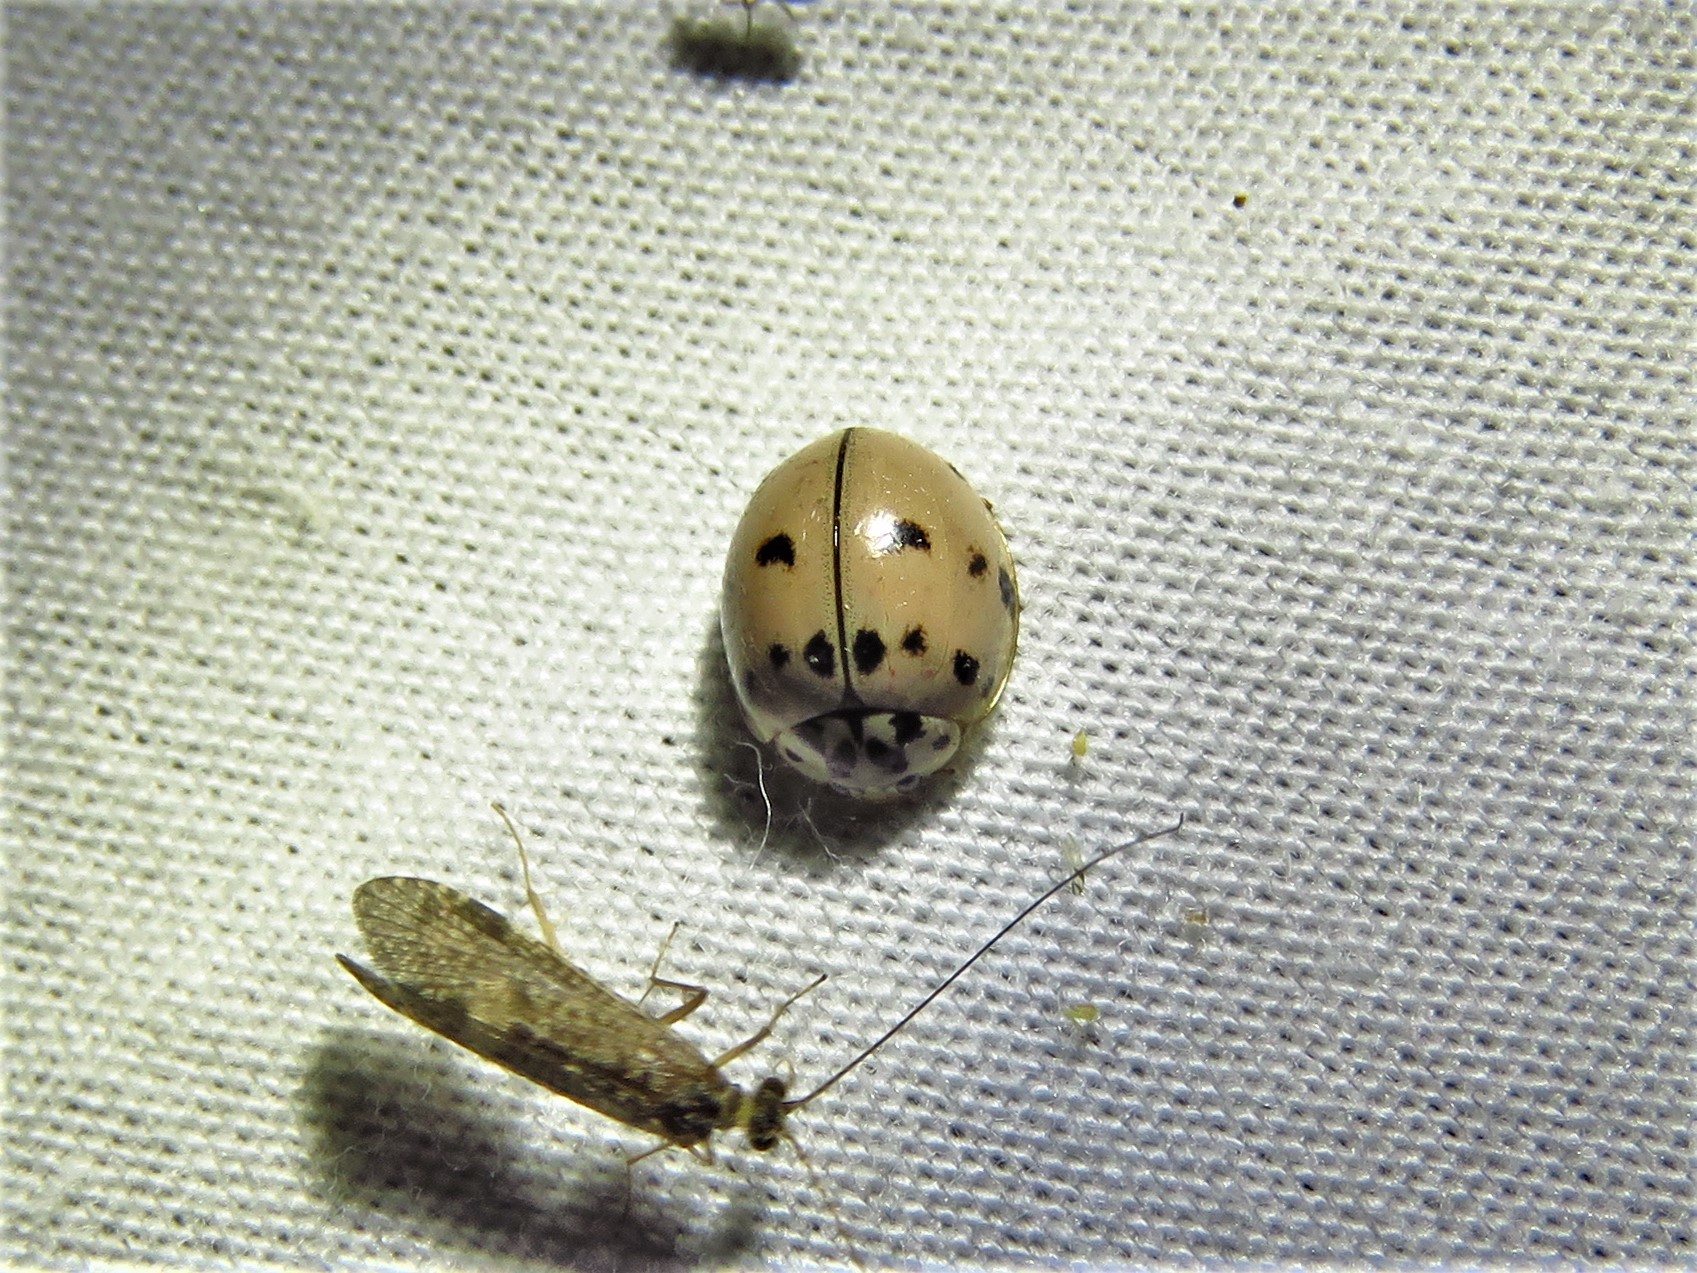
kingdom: Animalia
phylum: Arthropoda
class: Insecta
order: Coleoptera
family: Coccinellidae
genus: Olla
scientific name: Olla v-nigrum
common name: Ashy gray lady beetle
